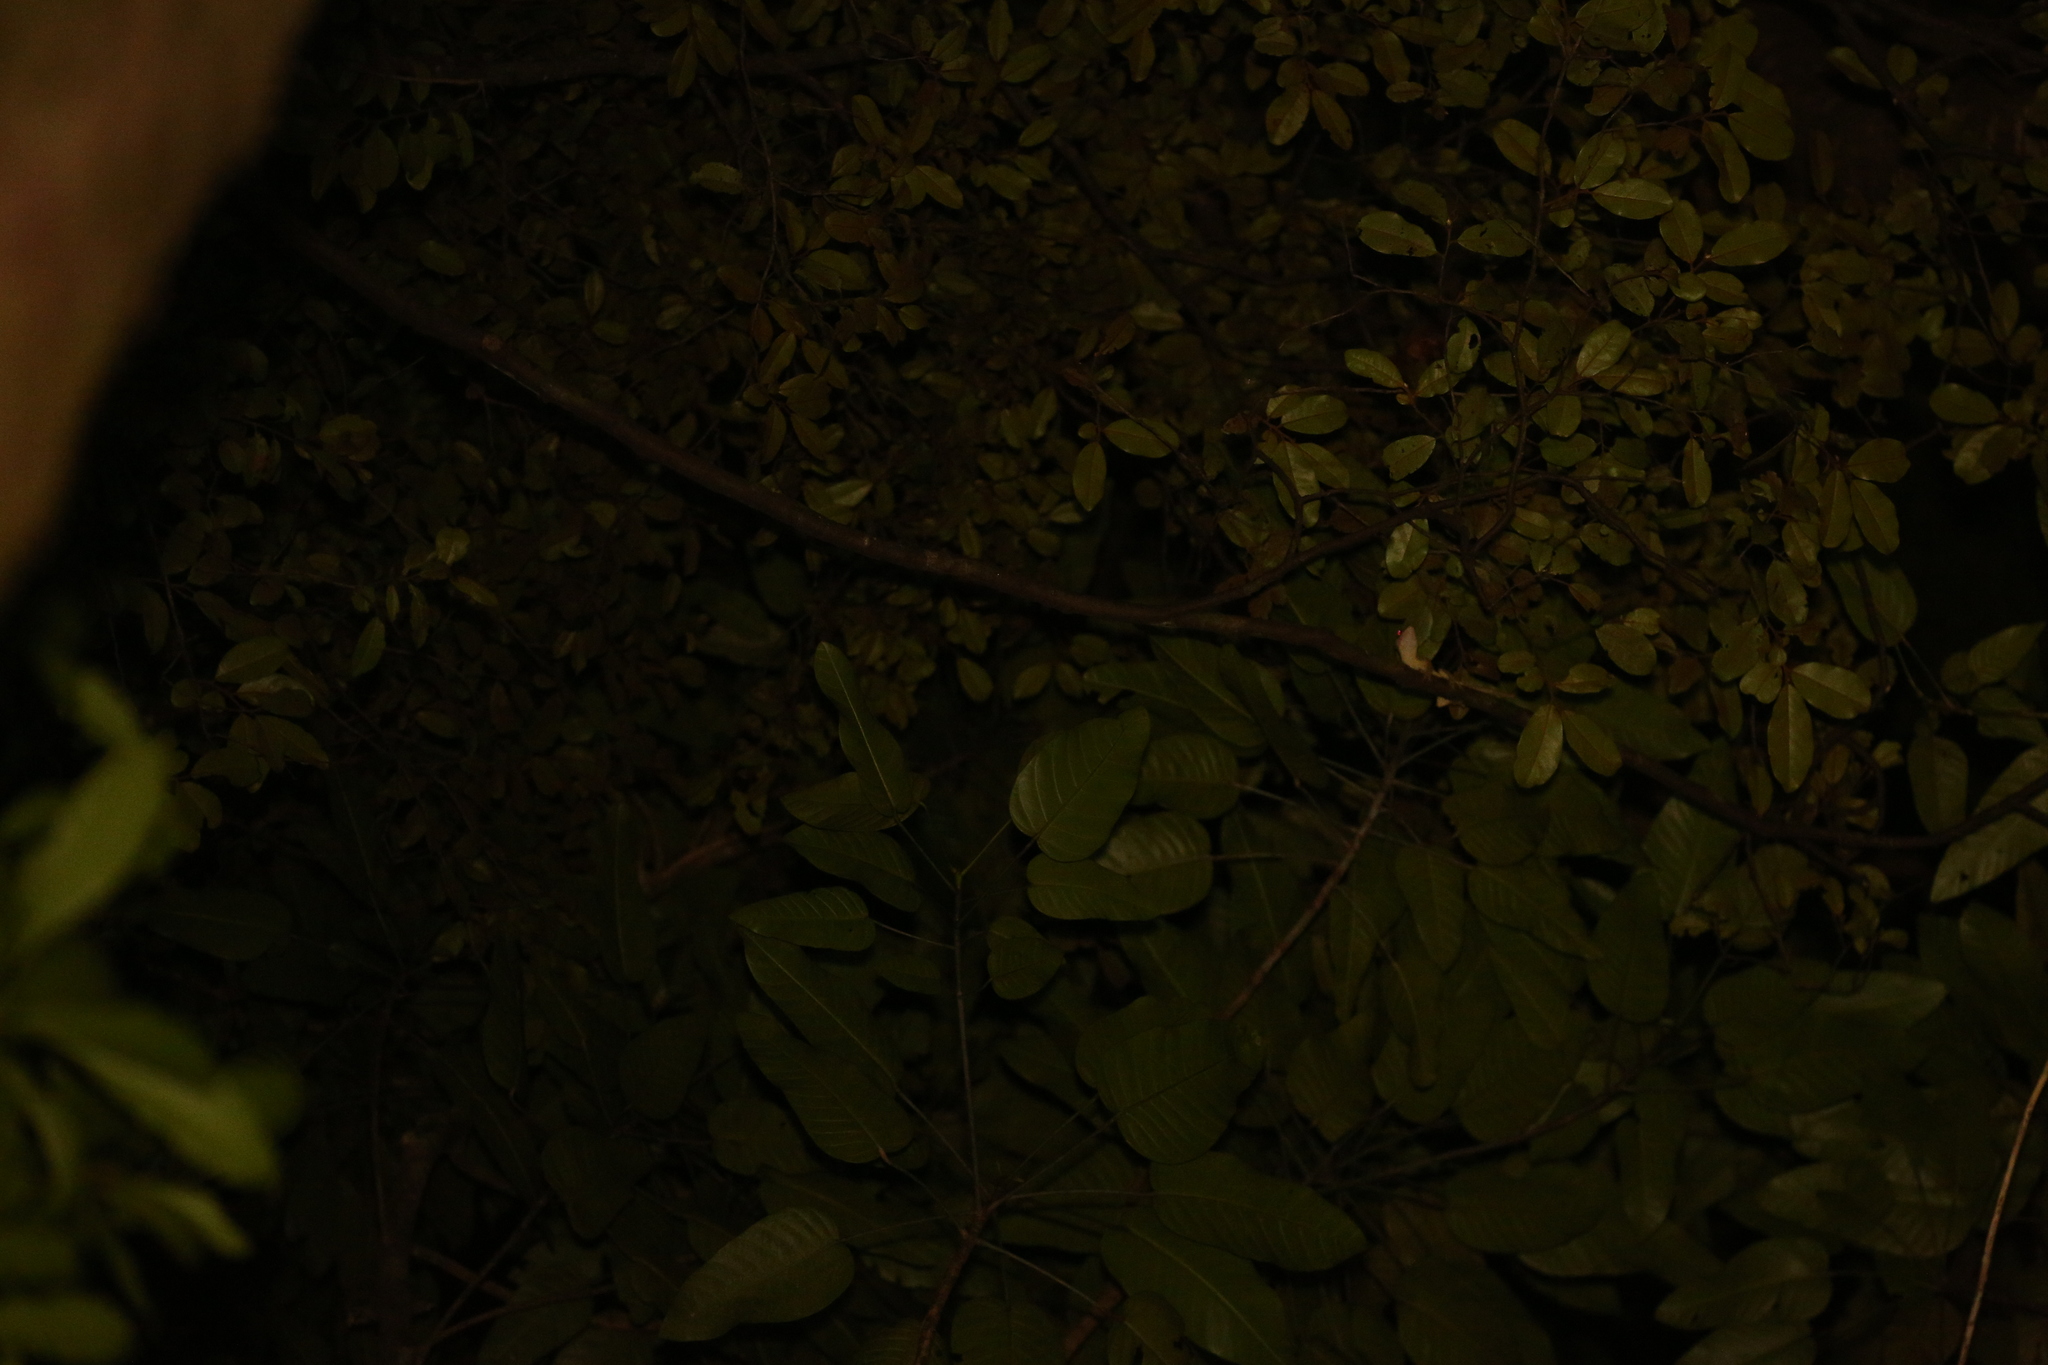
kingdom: Animalia
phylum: Chordata
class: Squamata
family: Diplodactylidae
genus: Correlophus
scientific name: Correlophus sarasinorum
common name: Roux's giant gecko
